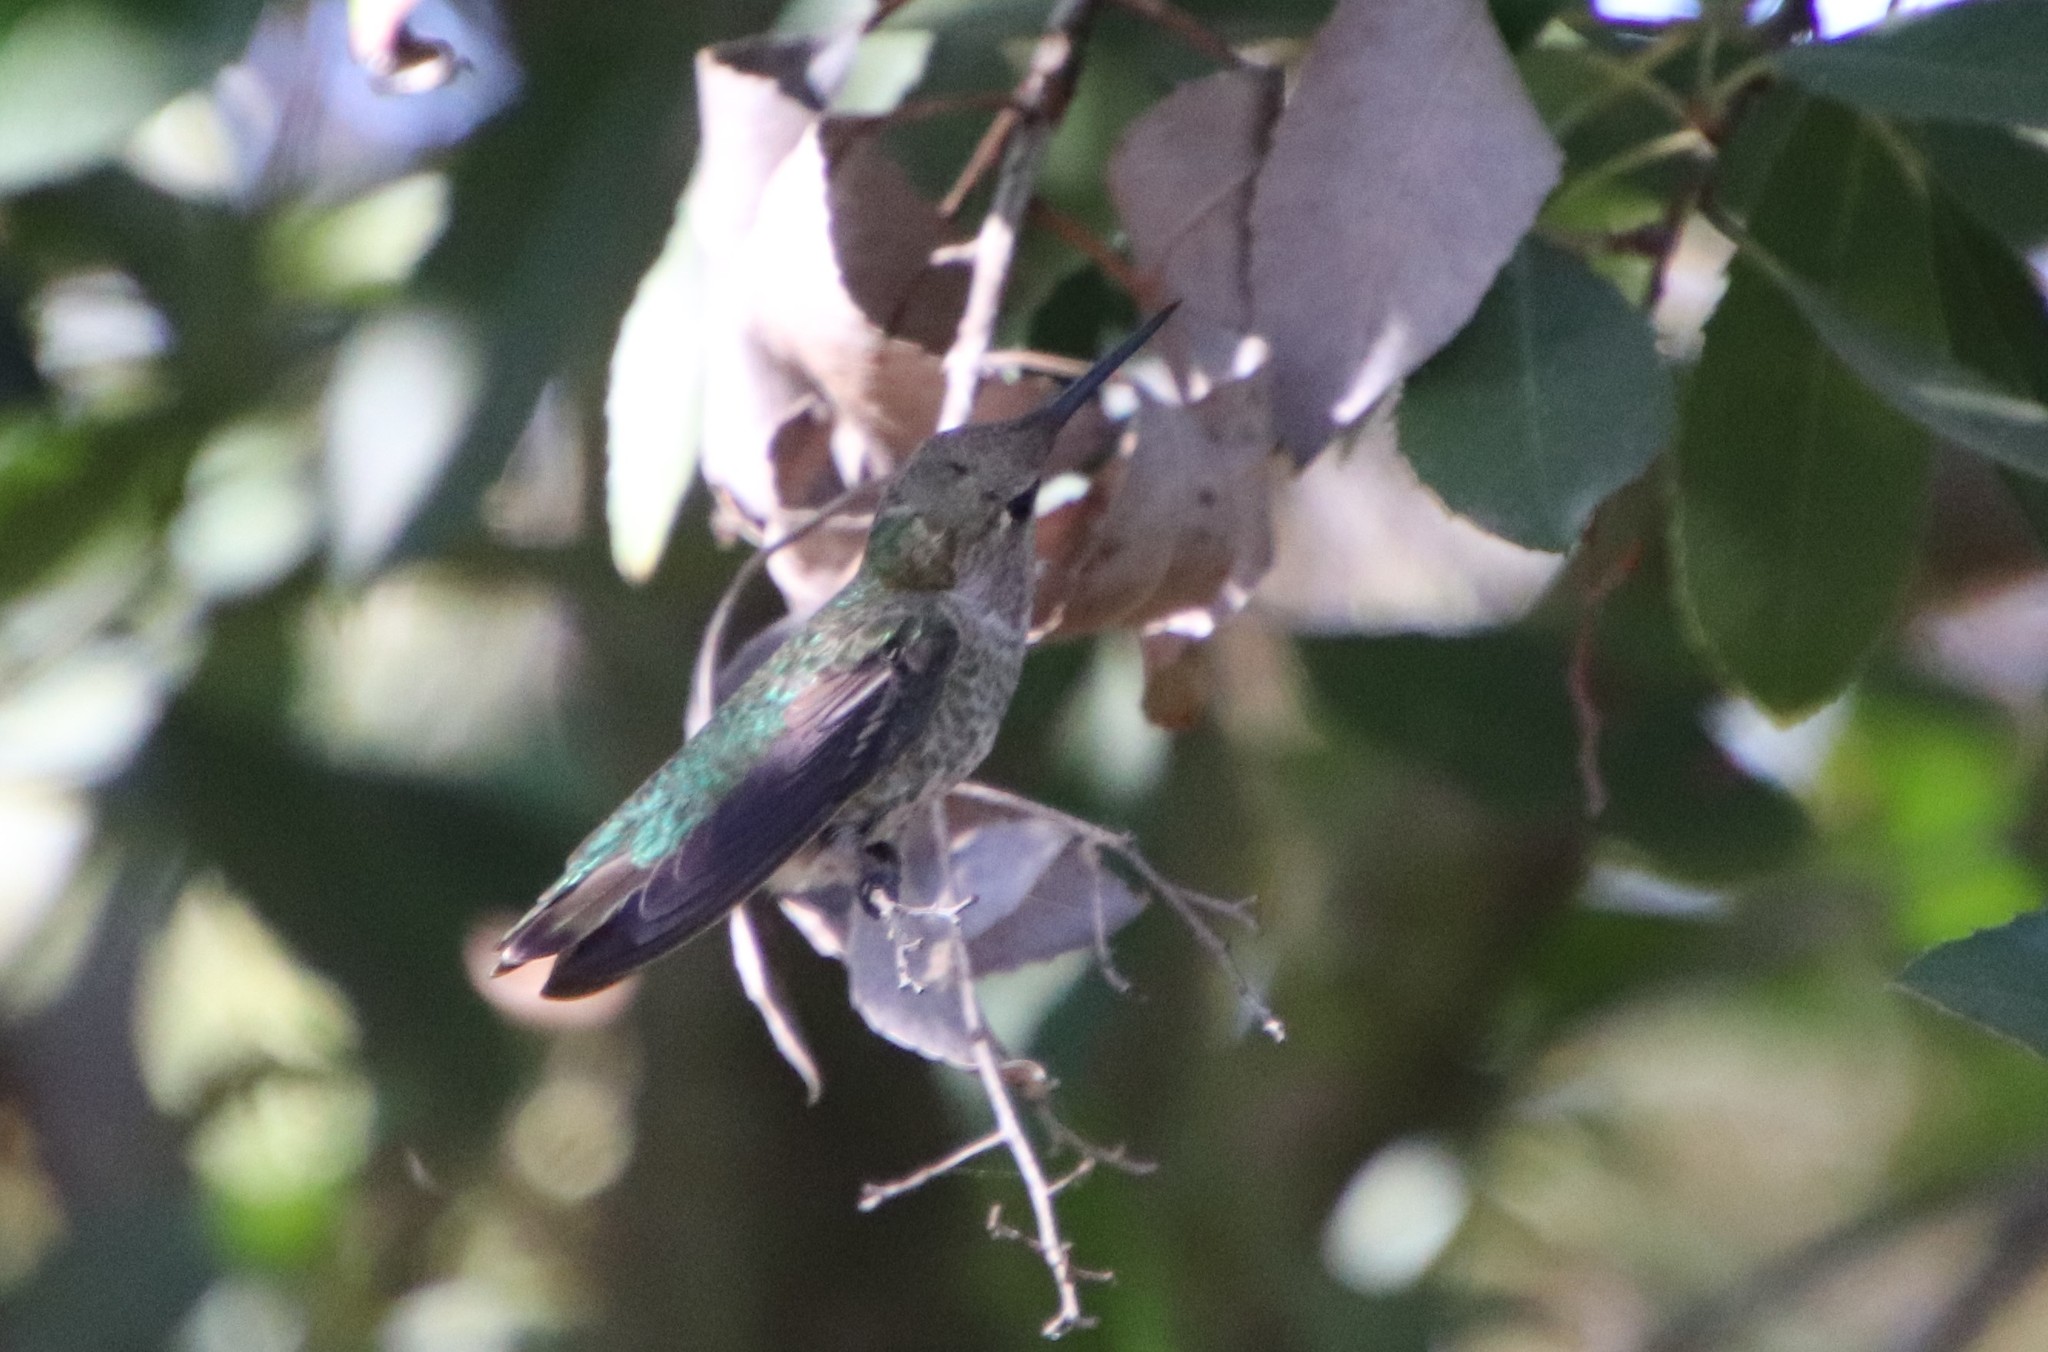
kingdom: Animalia
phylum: Chordata
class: Aves
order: Apodiformes
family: Trochilidae
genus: Calypte
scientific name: Calypte anna
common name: Anna's hummingbird
